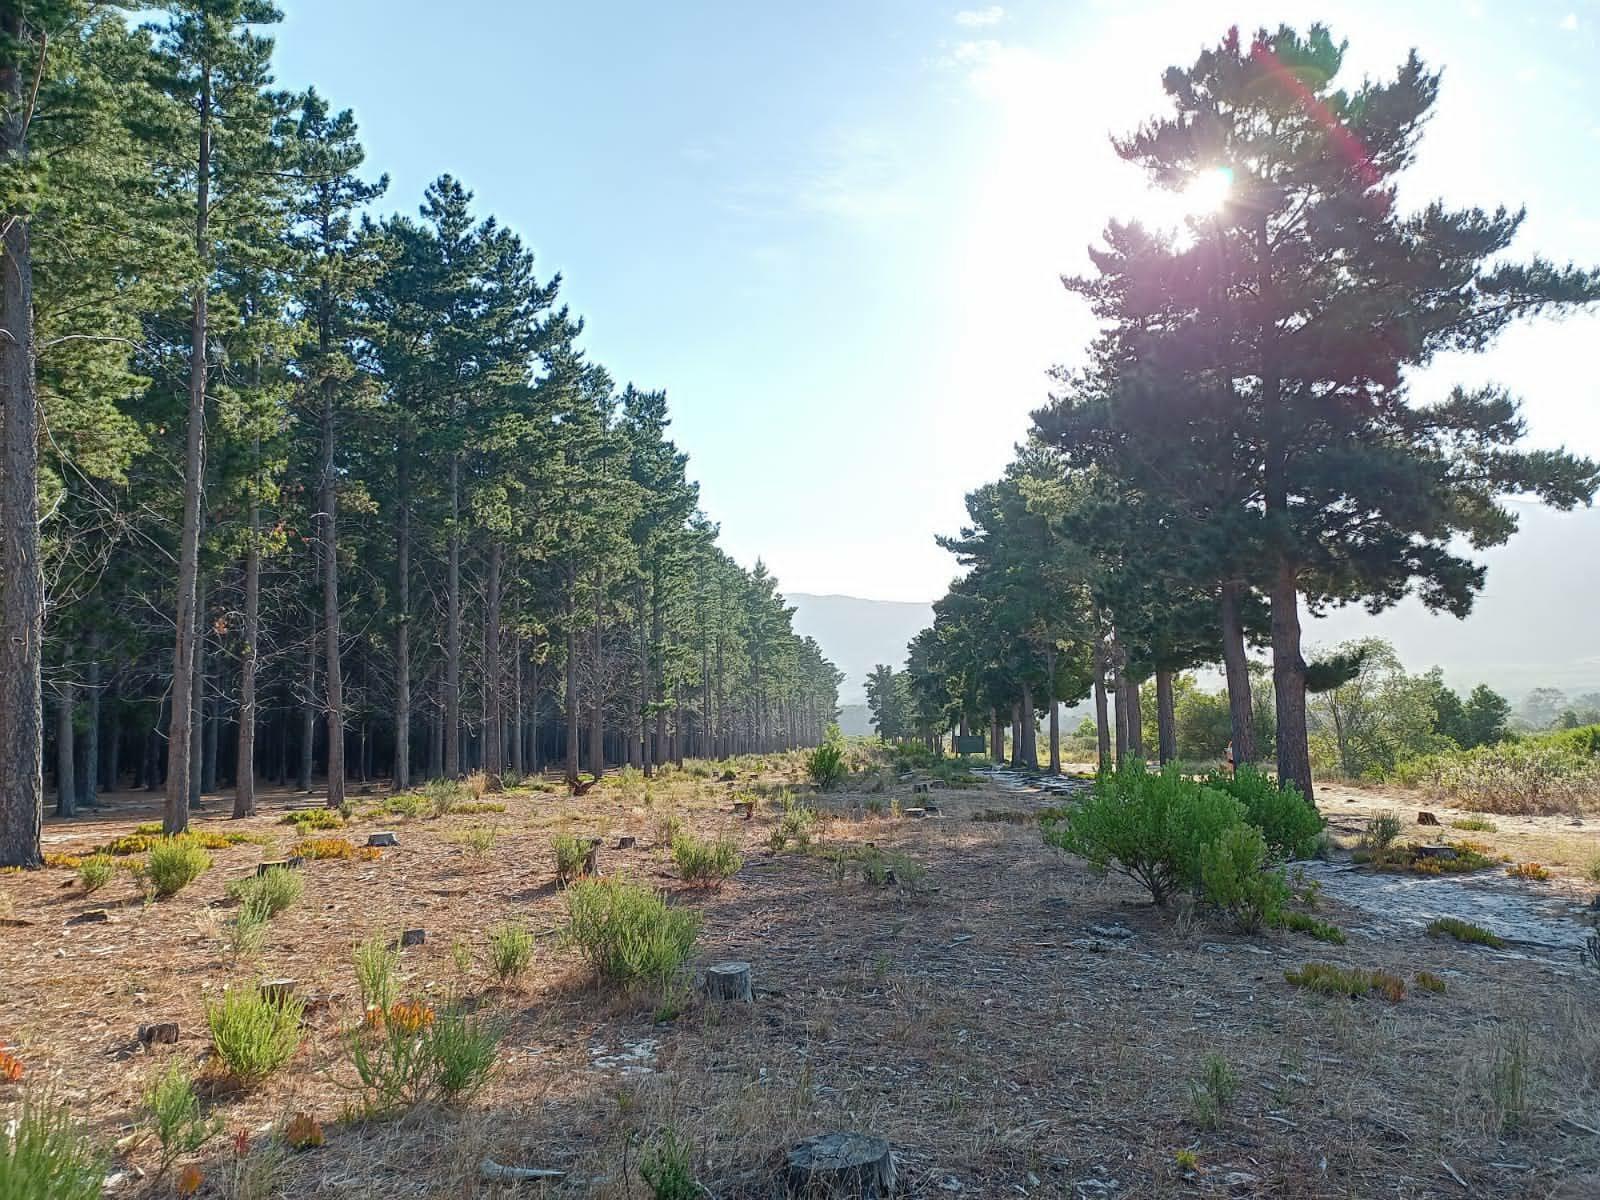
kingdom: Plantae
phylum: Tracheophyta
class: Magnoliopsida
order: Asterales
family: Asteraceae
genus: Osteospermum
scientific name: Osteospermum moniliferum
